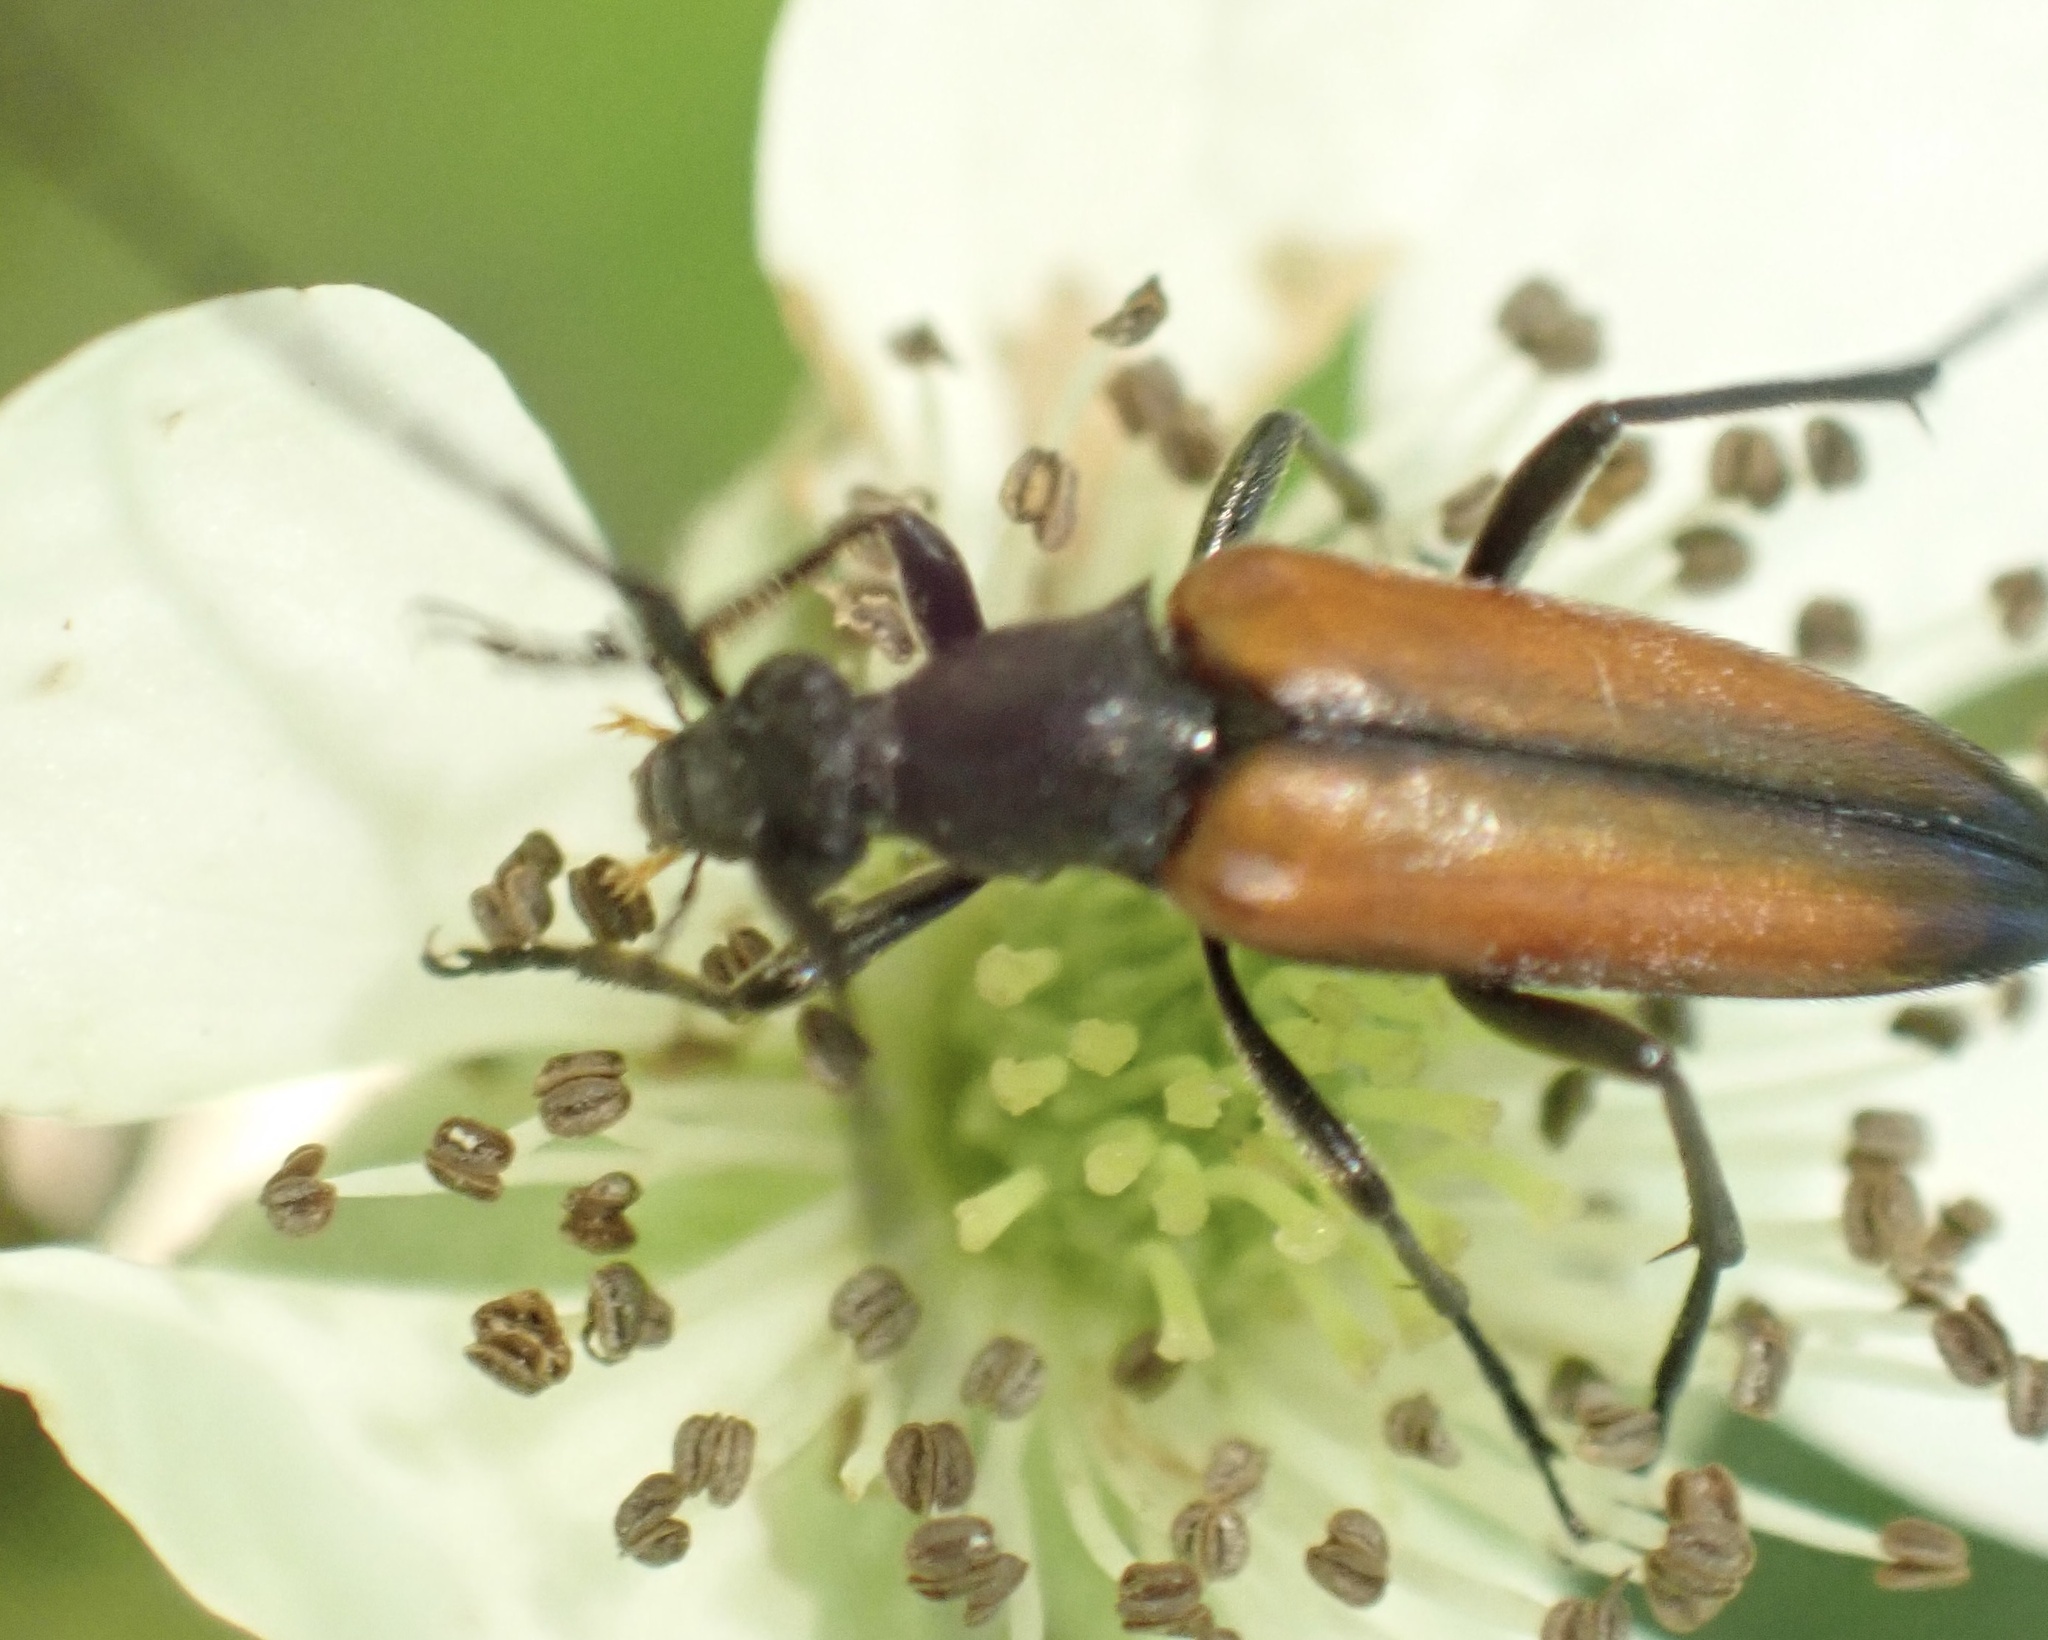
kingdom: Animalia
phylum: Arthropoda
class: Insecta
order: Coleoptera
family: Cerambycidae
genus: Stenurella
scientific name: Stenurella melanura
